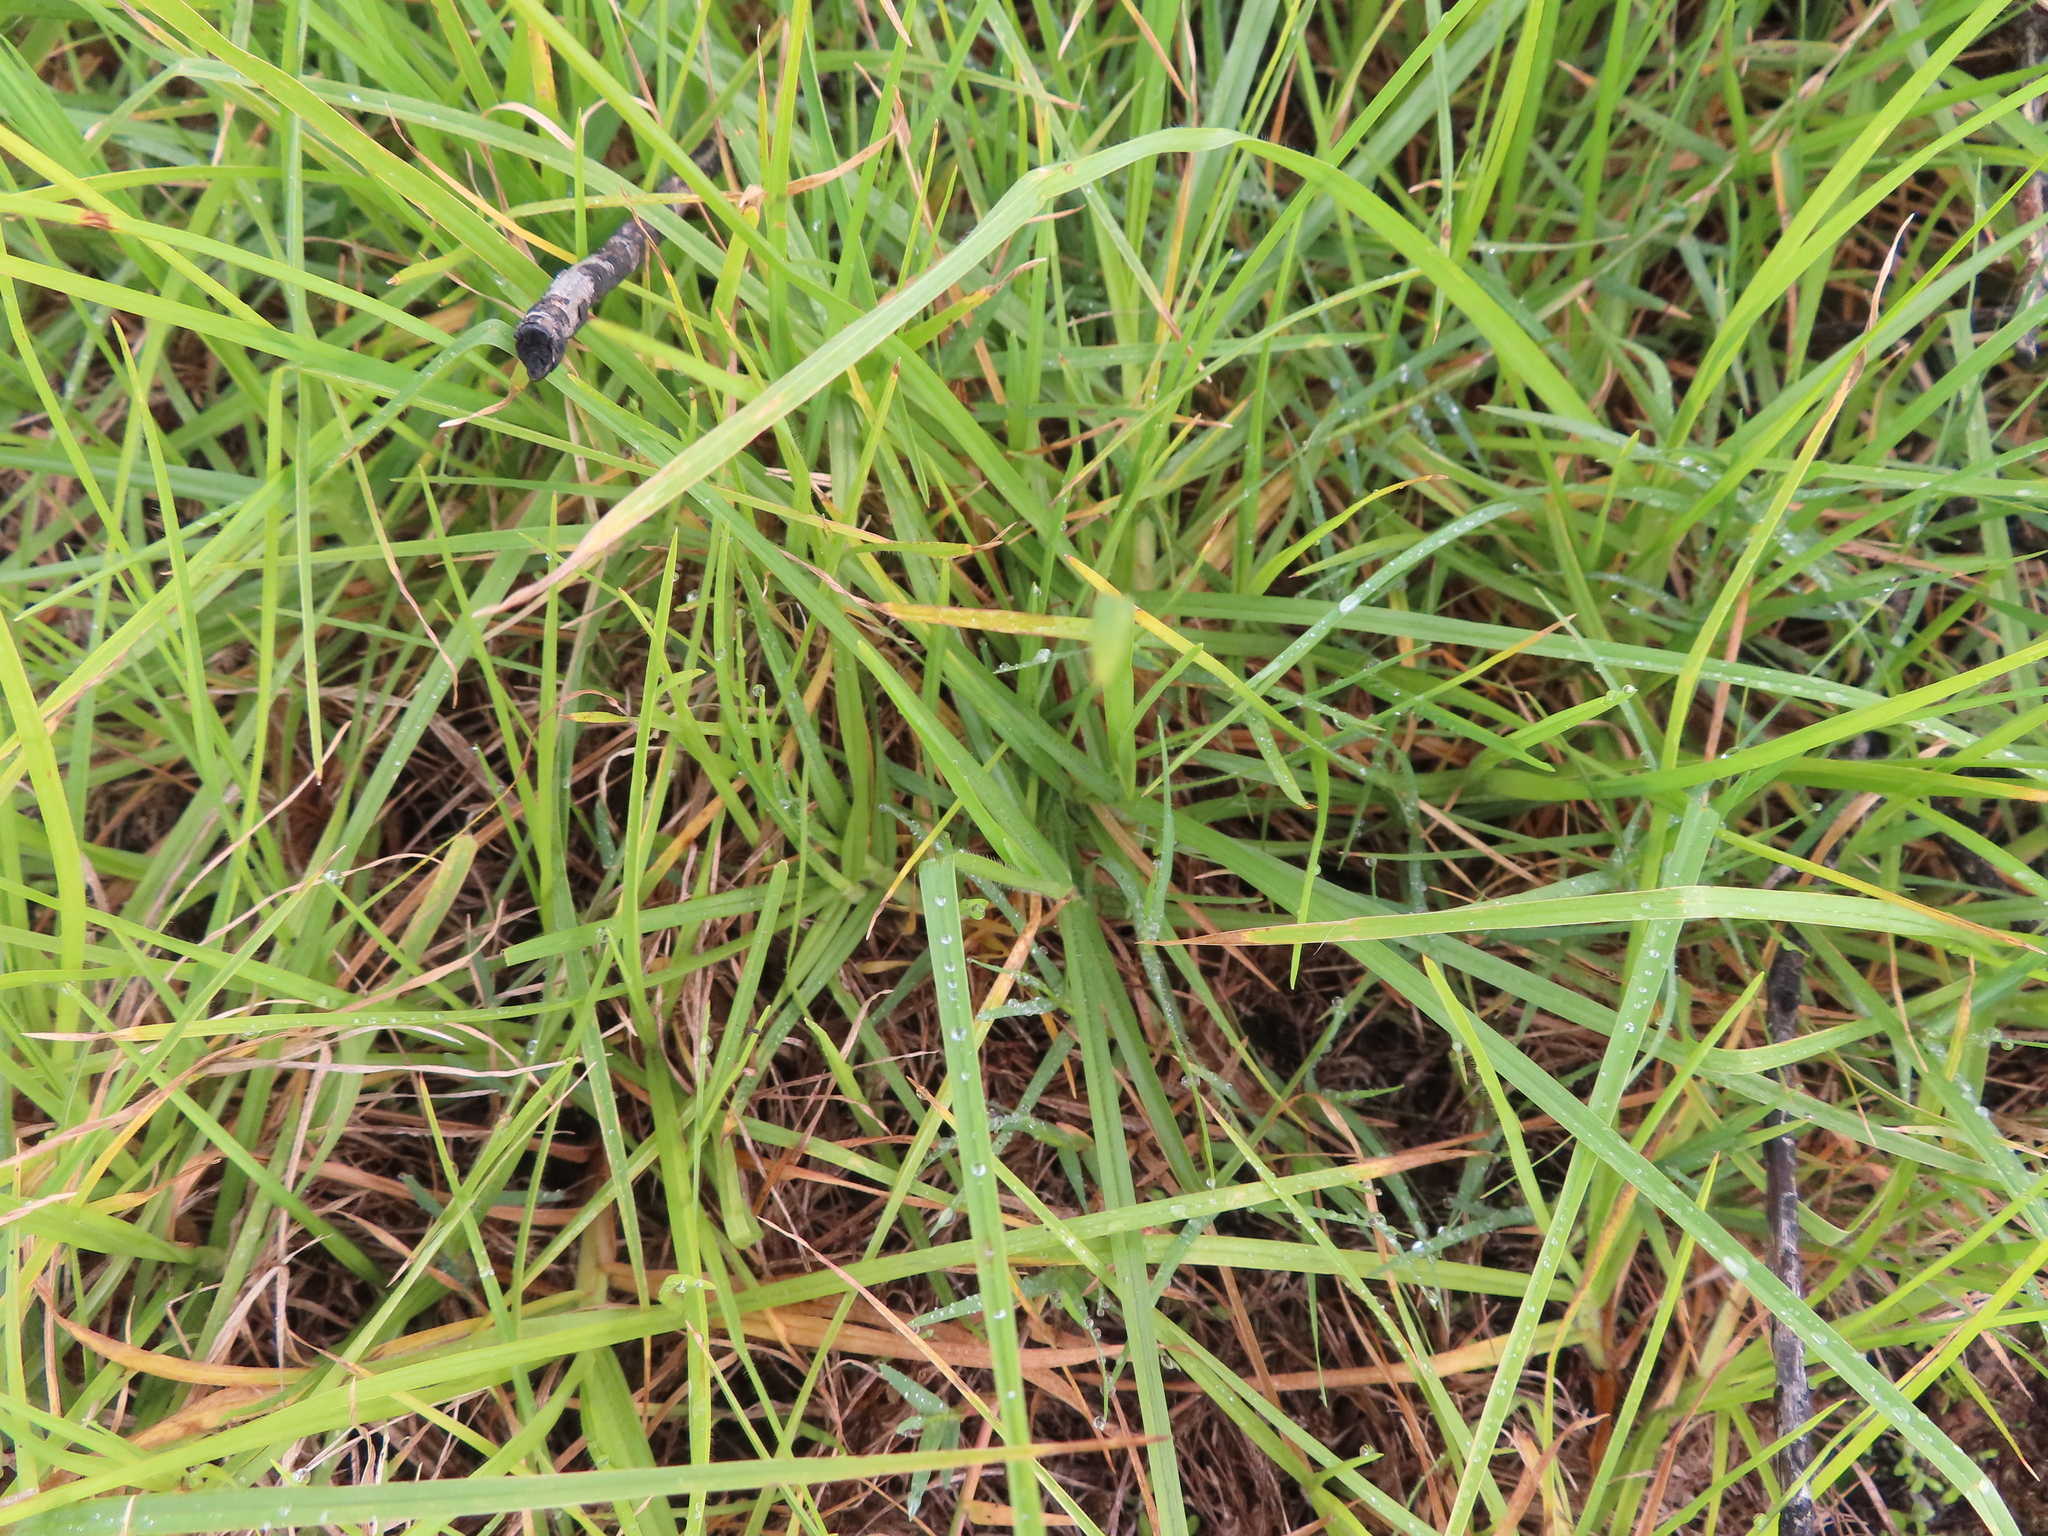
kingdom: Plantae
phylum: Tracheophyta
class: Liliopsida
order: Poales
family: Poaceae
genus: Cenchrus
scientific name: Cenchrus clandestinus
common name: Kikuyugrass
